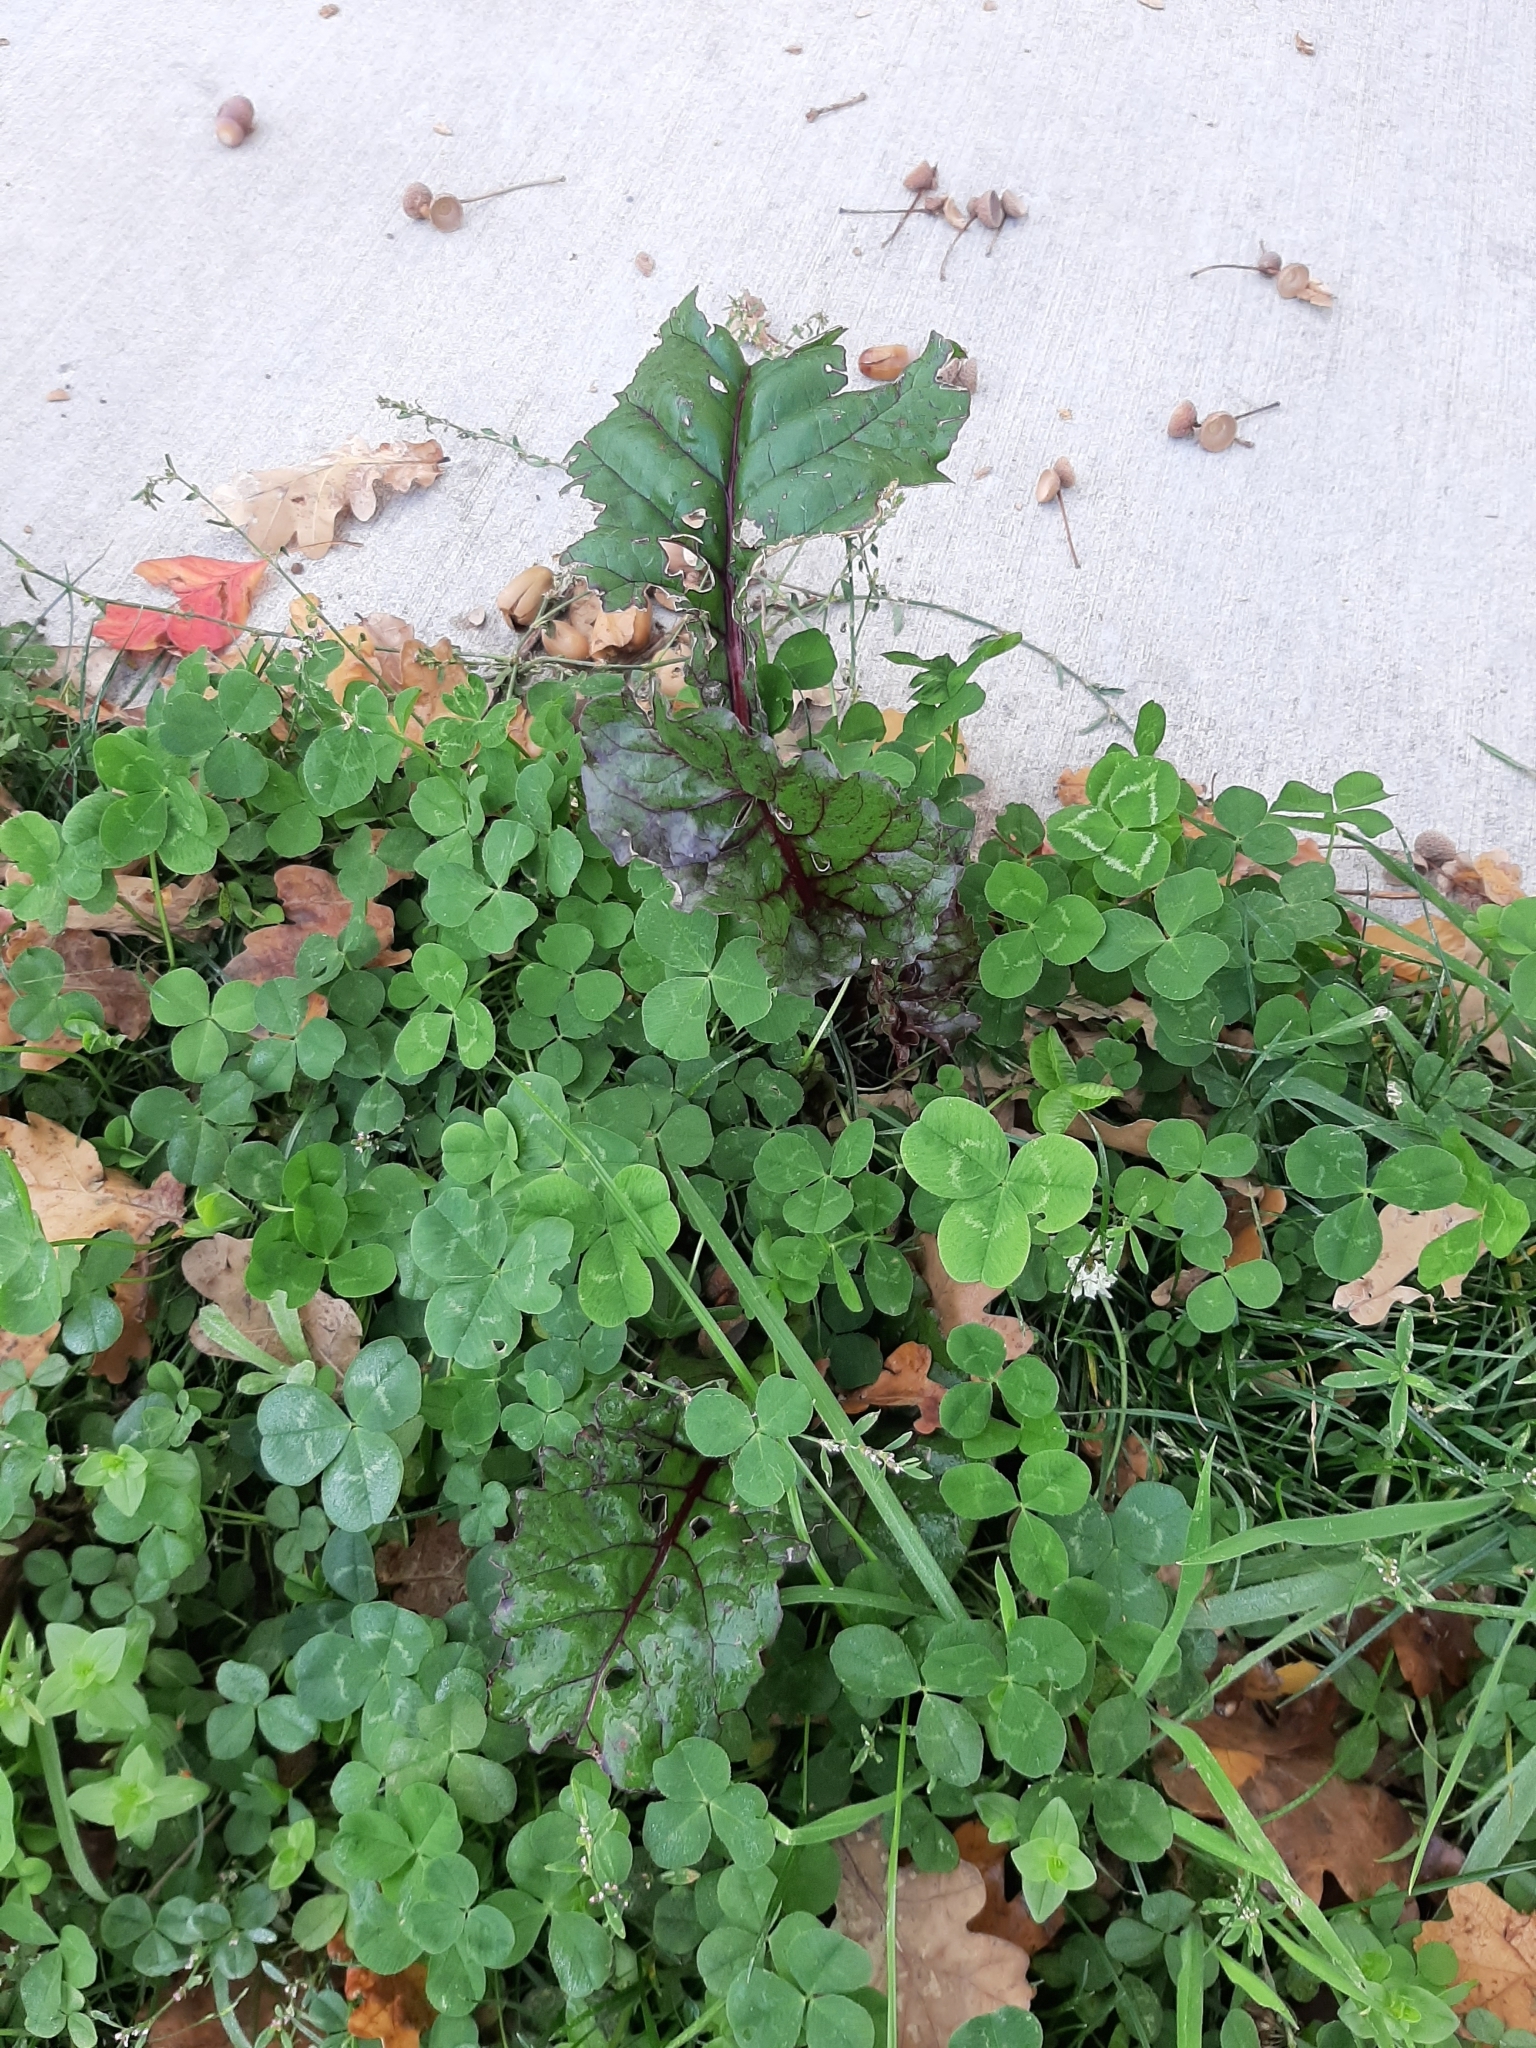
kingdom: Plantae
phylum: Tracheophyta
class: Magnoliopsida
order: Caryophyllales
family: Amaranthaceae
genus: Beta
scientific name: Beta vulgaris
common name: Beet
